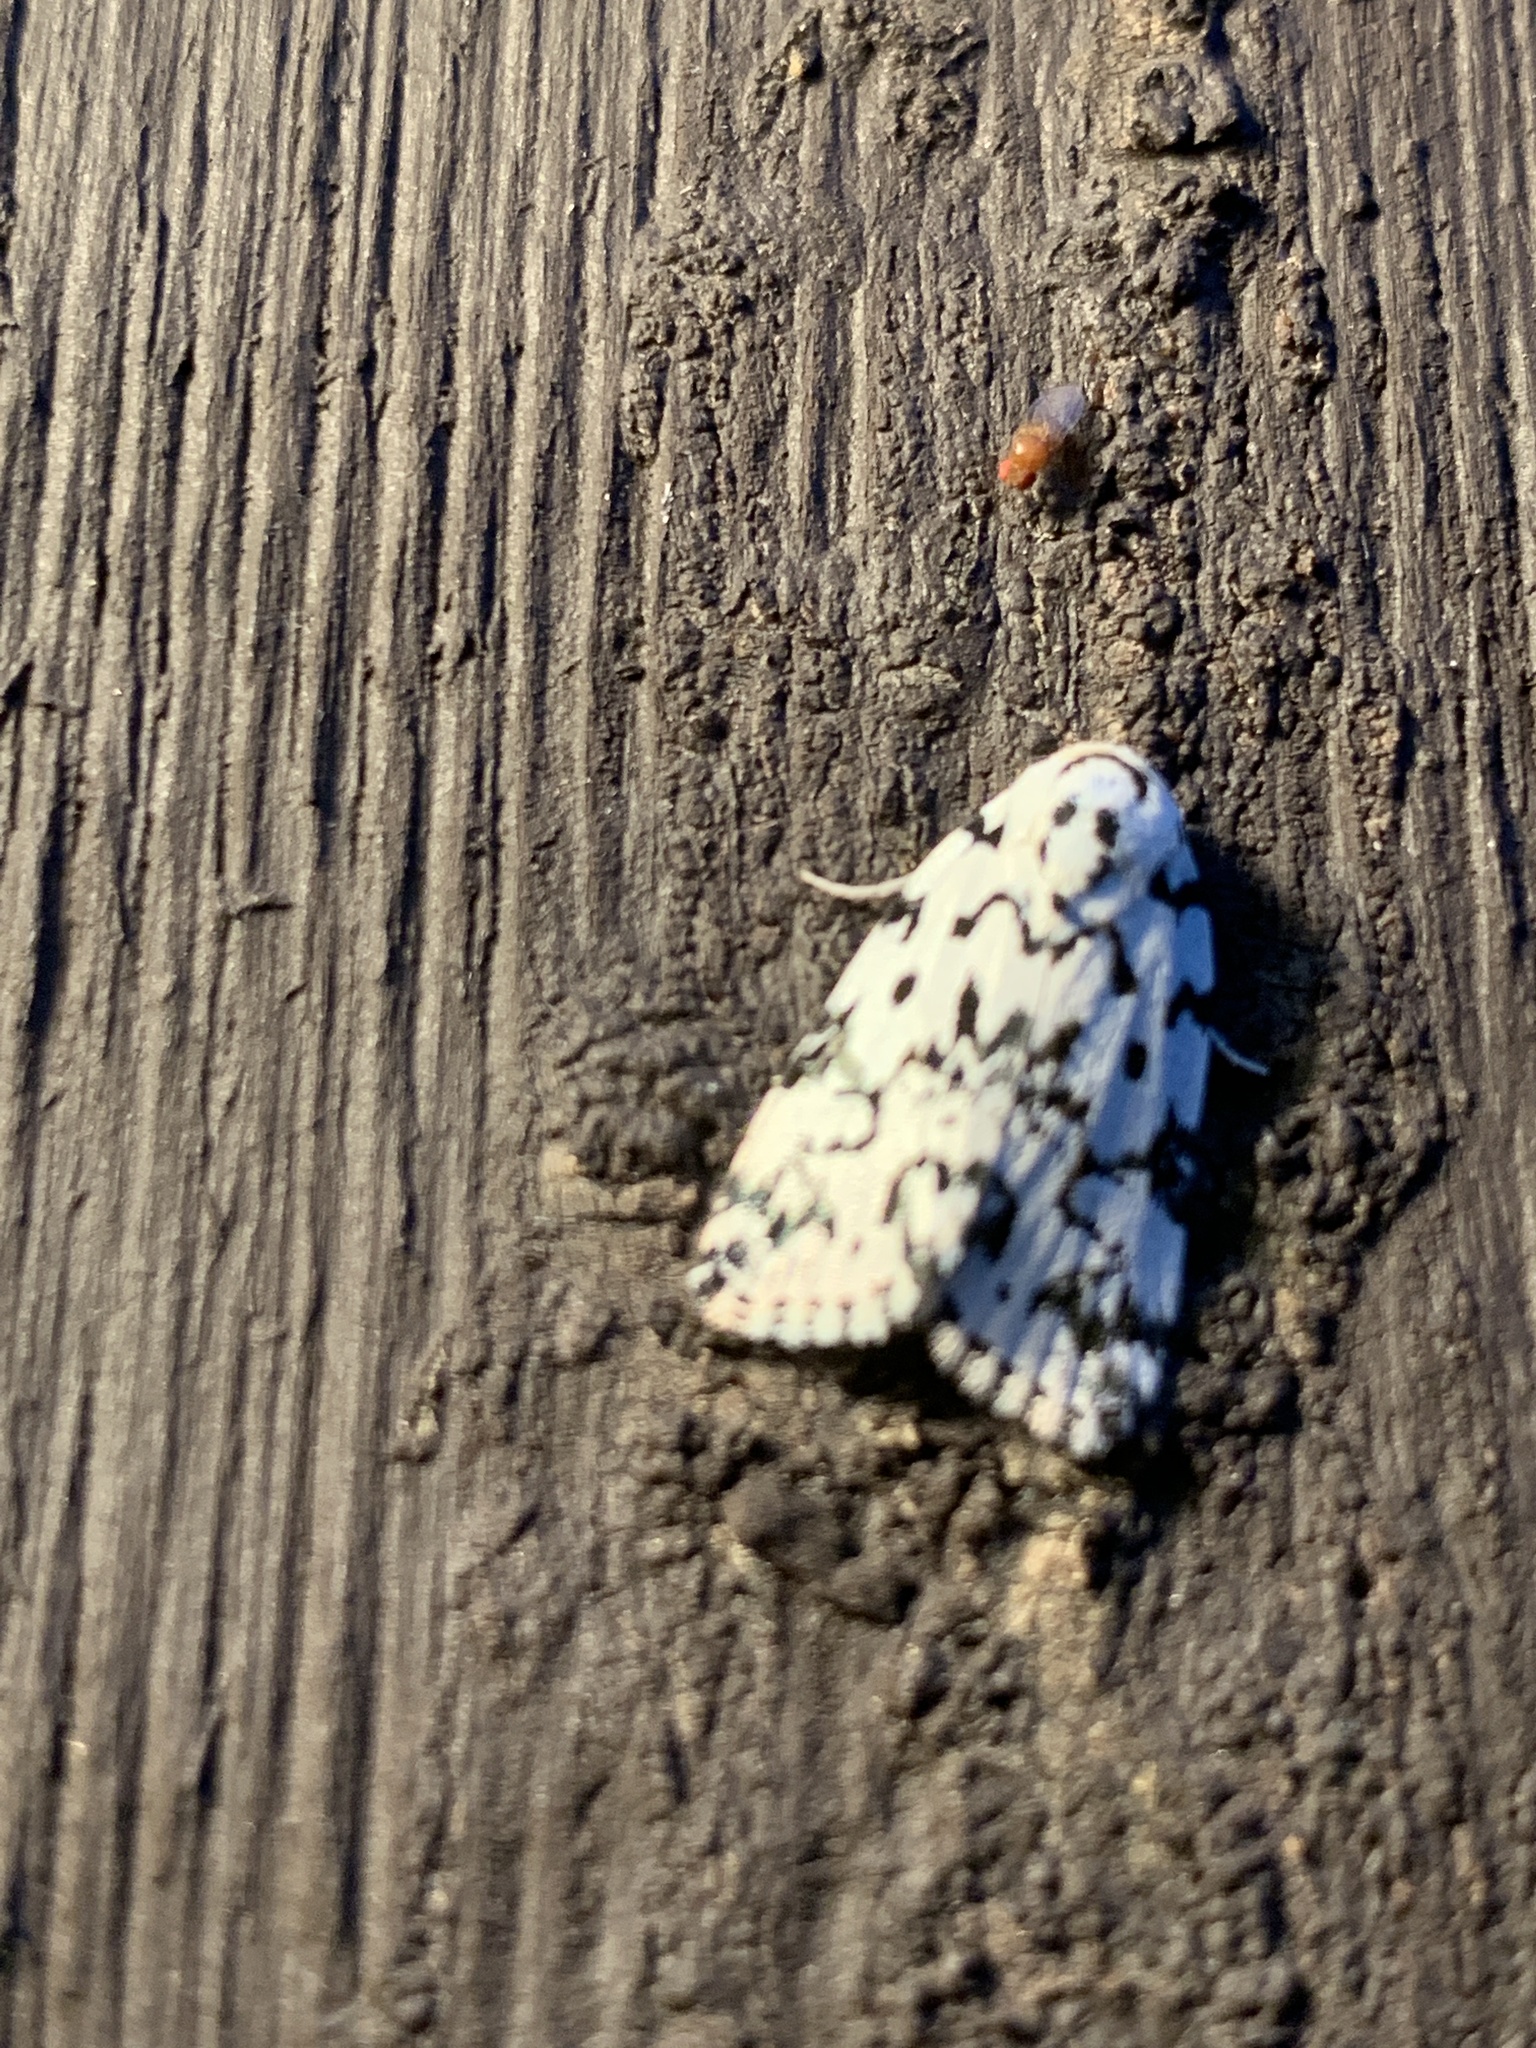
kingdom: Animalia
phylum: Arthropoda
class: Insecta
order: Lepidoptera
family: Noctuidae
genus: Polygrammate
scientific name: Polygrammate hebraeicum
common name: Hebrew moth
